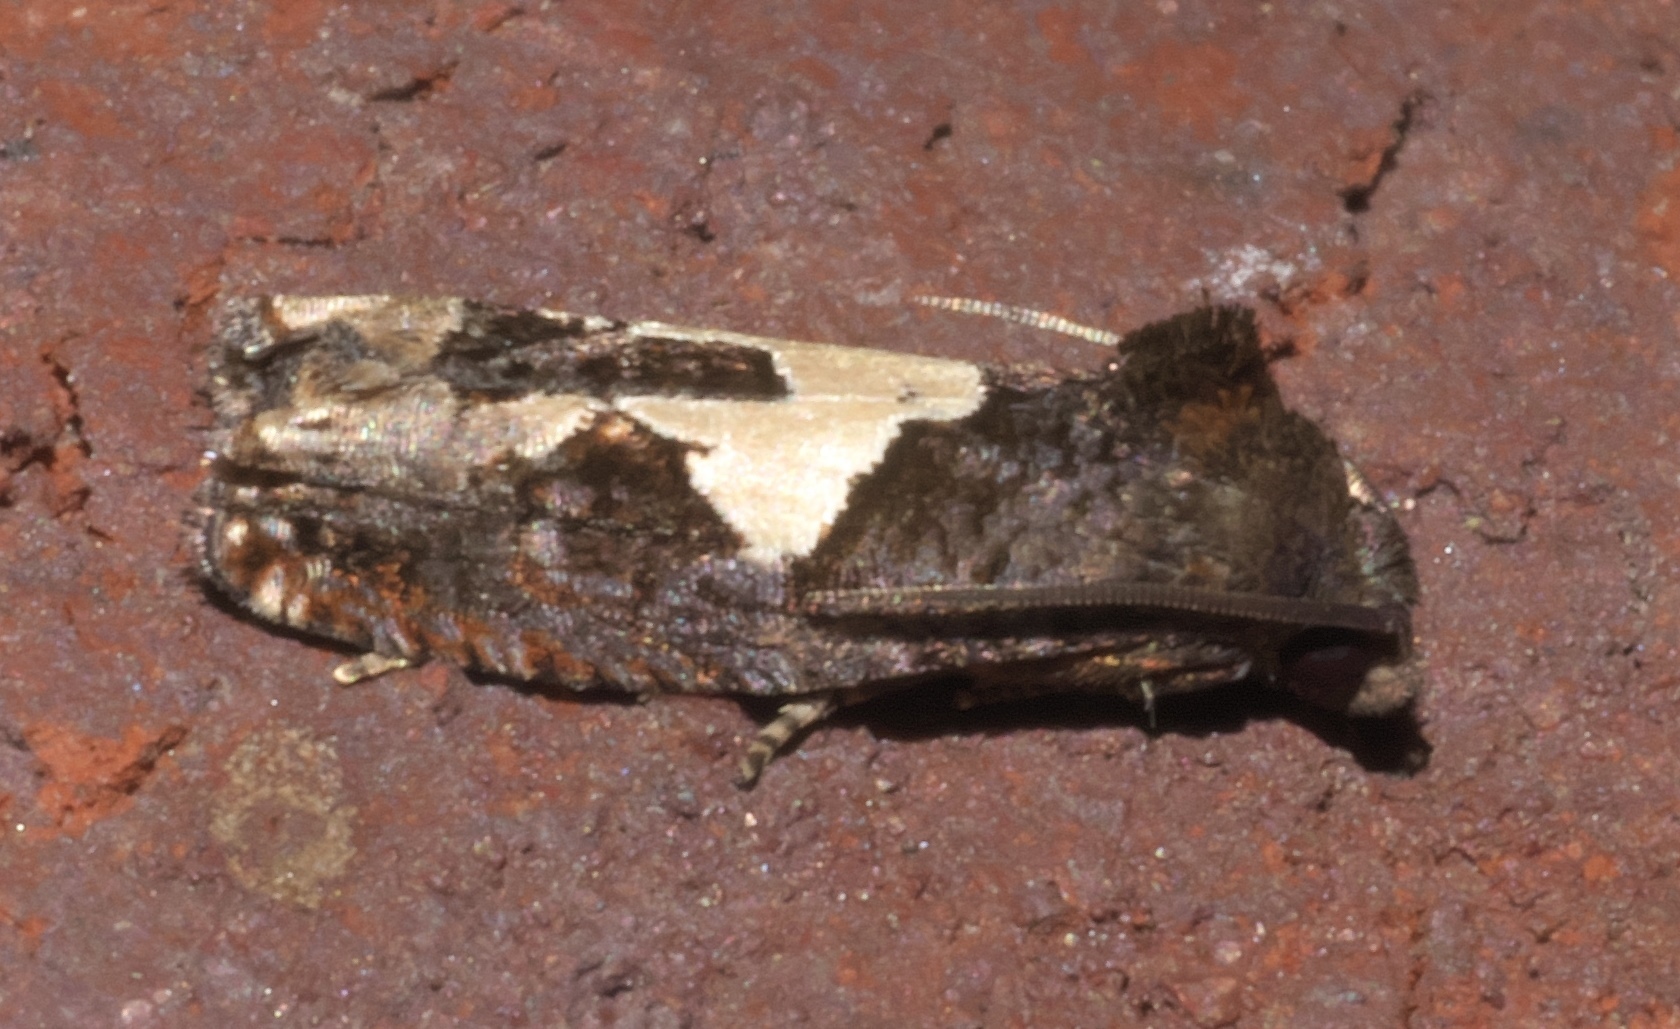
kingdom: Animalia
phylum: Arthropoda
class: Insecta
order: Lepidoptera
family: Tortricidae
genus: Epiblema
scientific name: Epiblema otiosana
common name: Bidens borer moth
